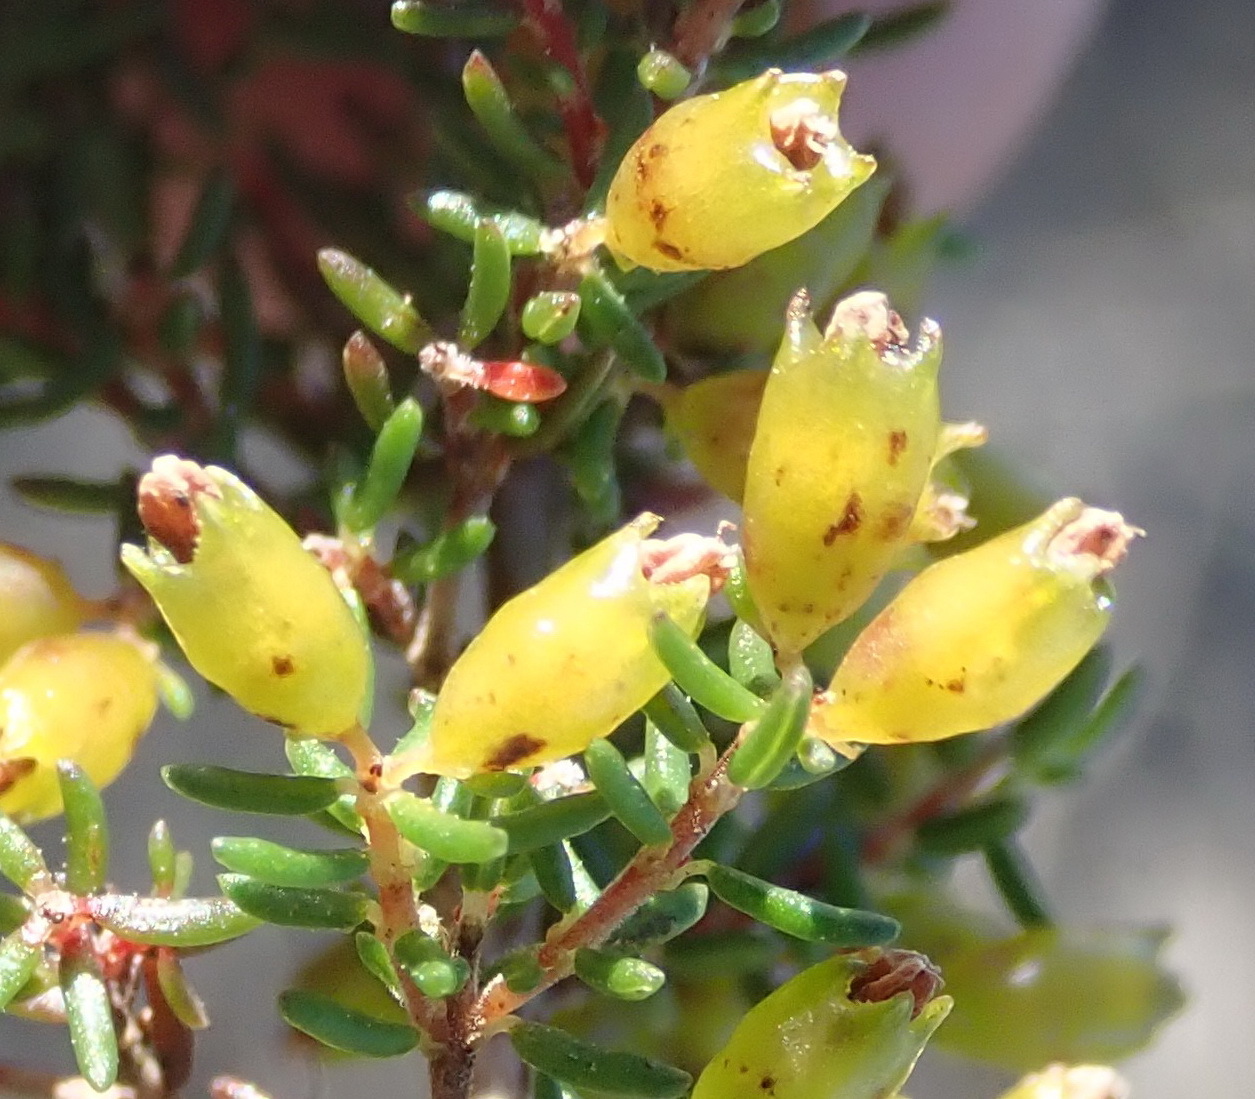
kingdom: Plantae
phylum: Tracheophyta
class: Magnoliopsida
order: Ericales
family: Ericaceae
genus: Erica
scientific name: Erica anguliger
